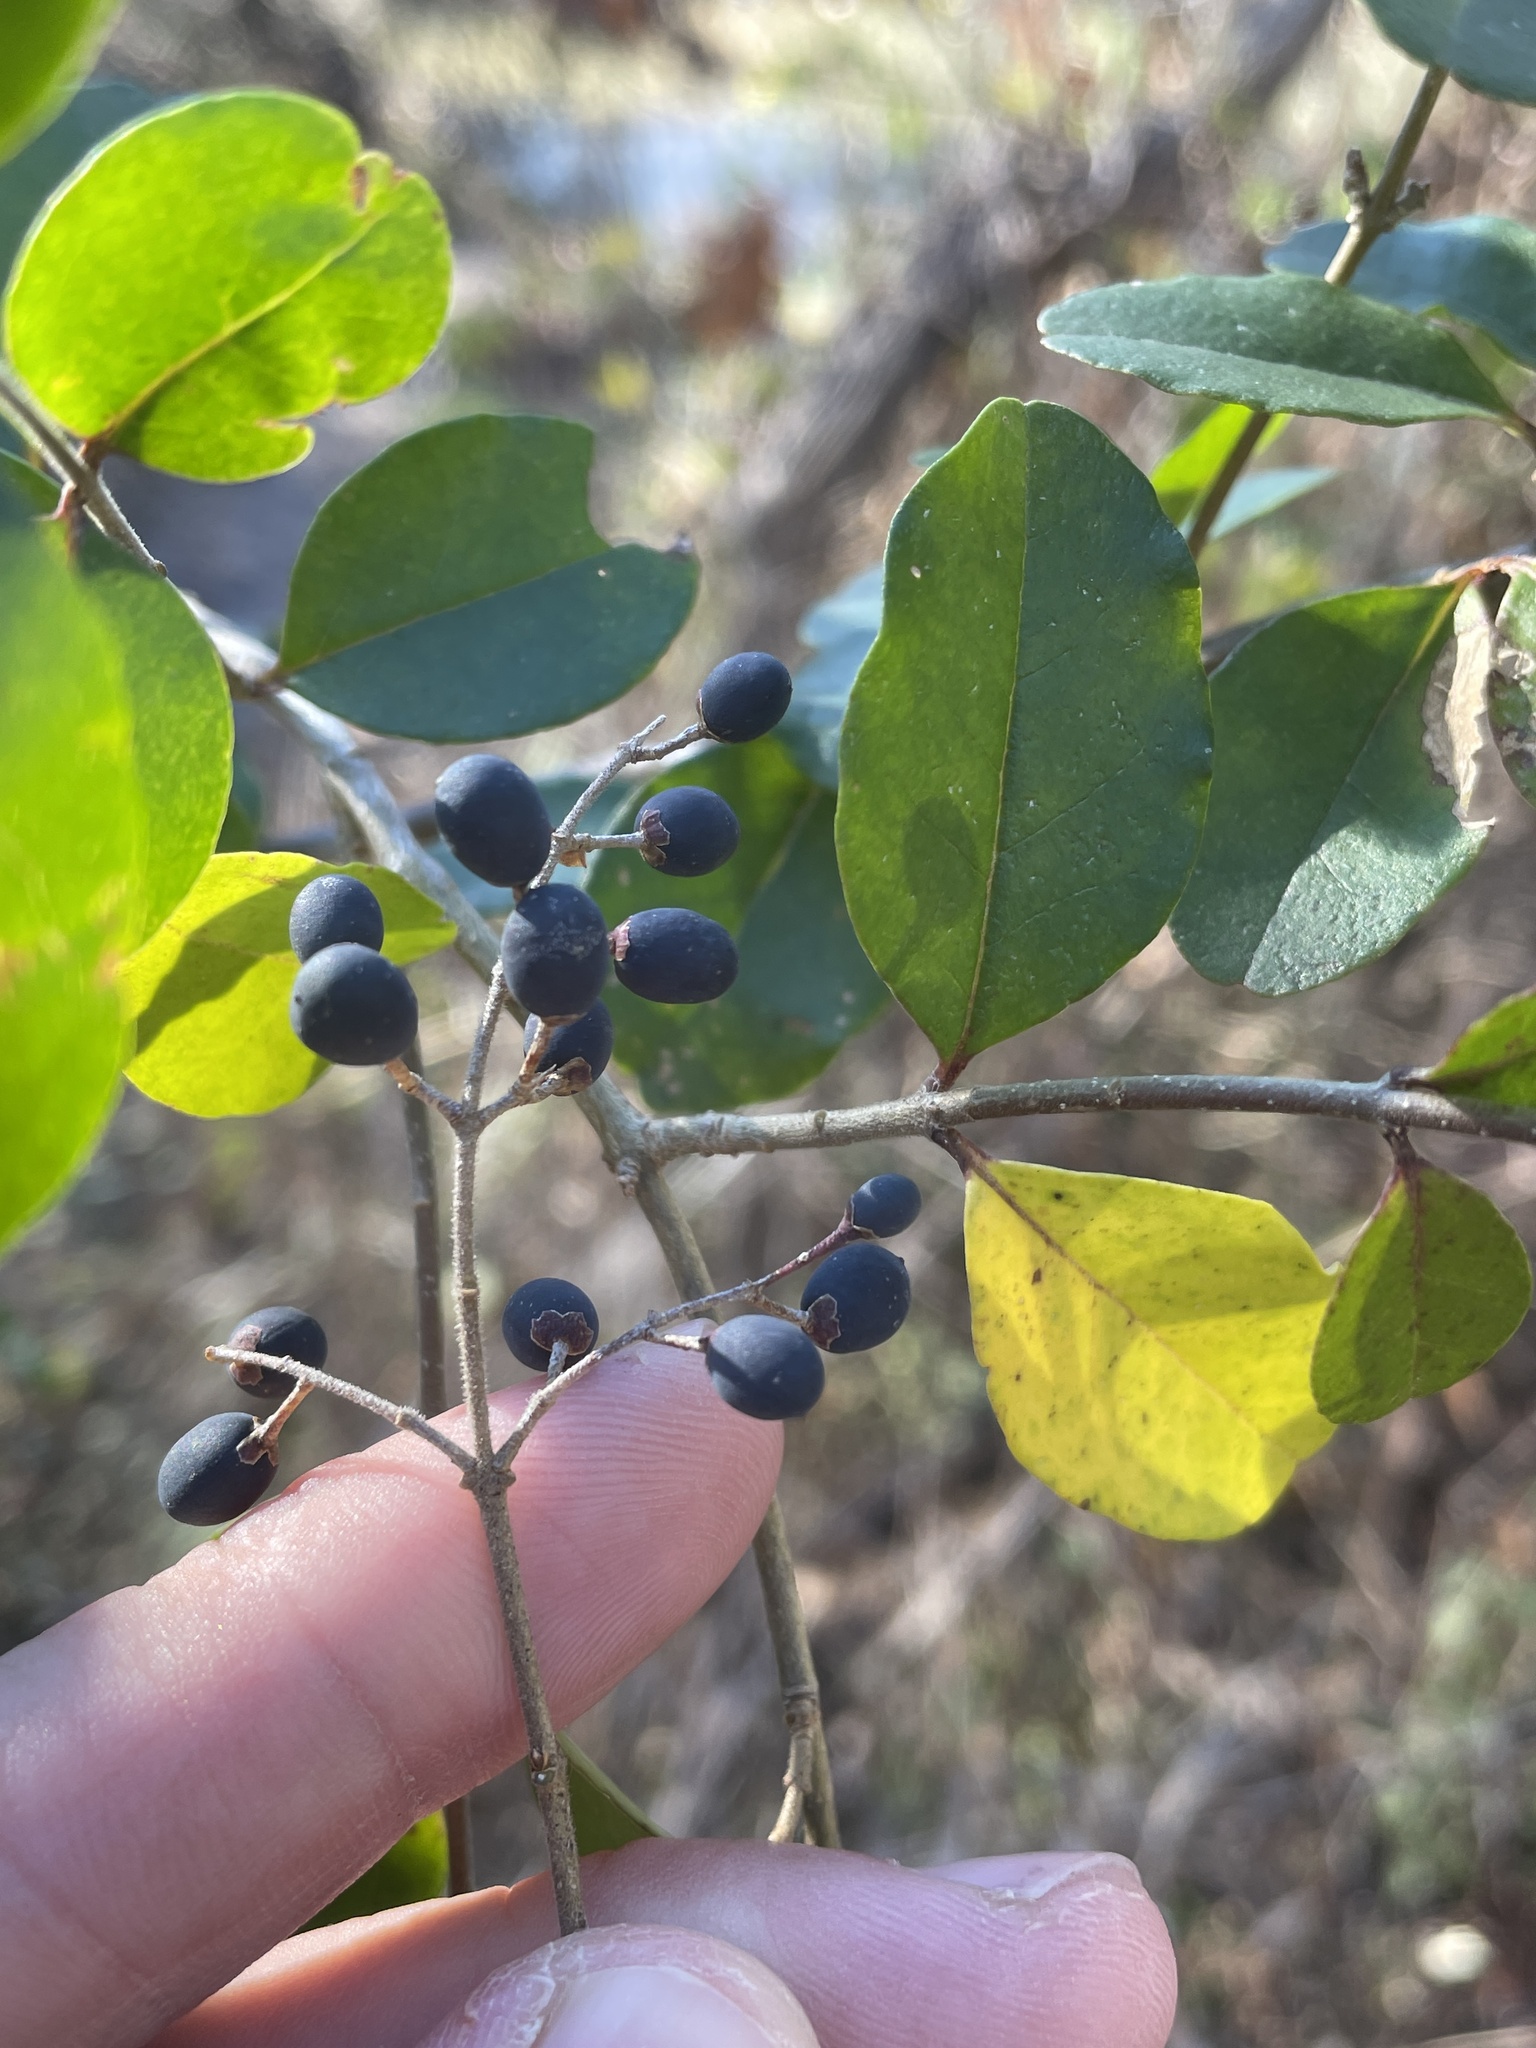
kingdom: Plantae
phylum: Tracheophyta
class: Magnoliopsida
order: Lamiales
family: Oleaceae
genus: Ligustrum
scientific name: Ligustrum sinense
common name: Chinese privet
